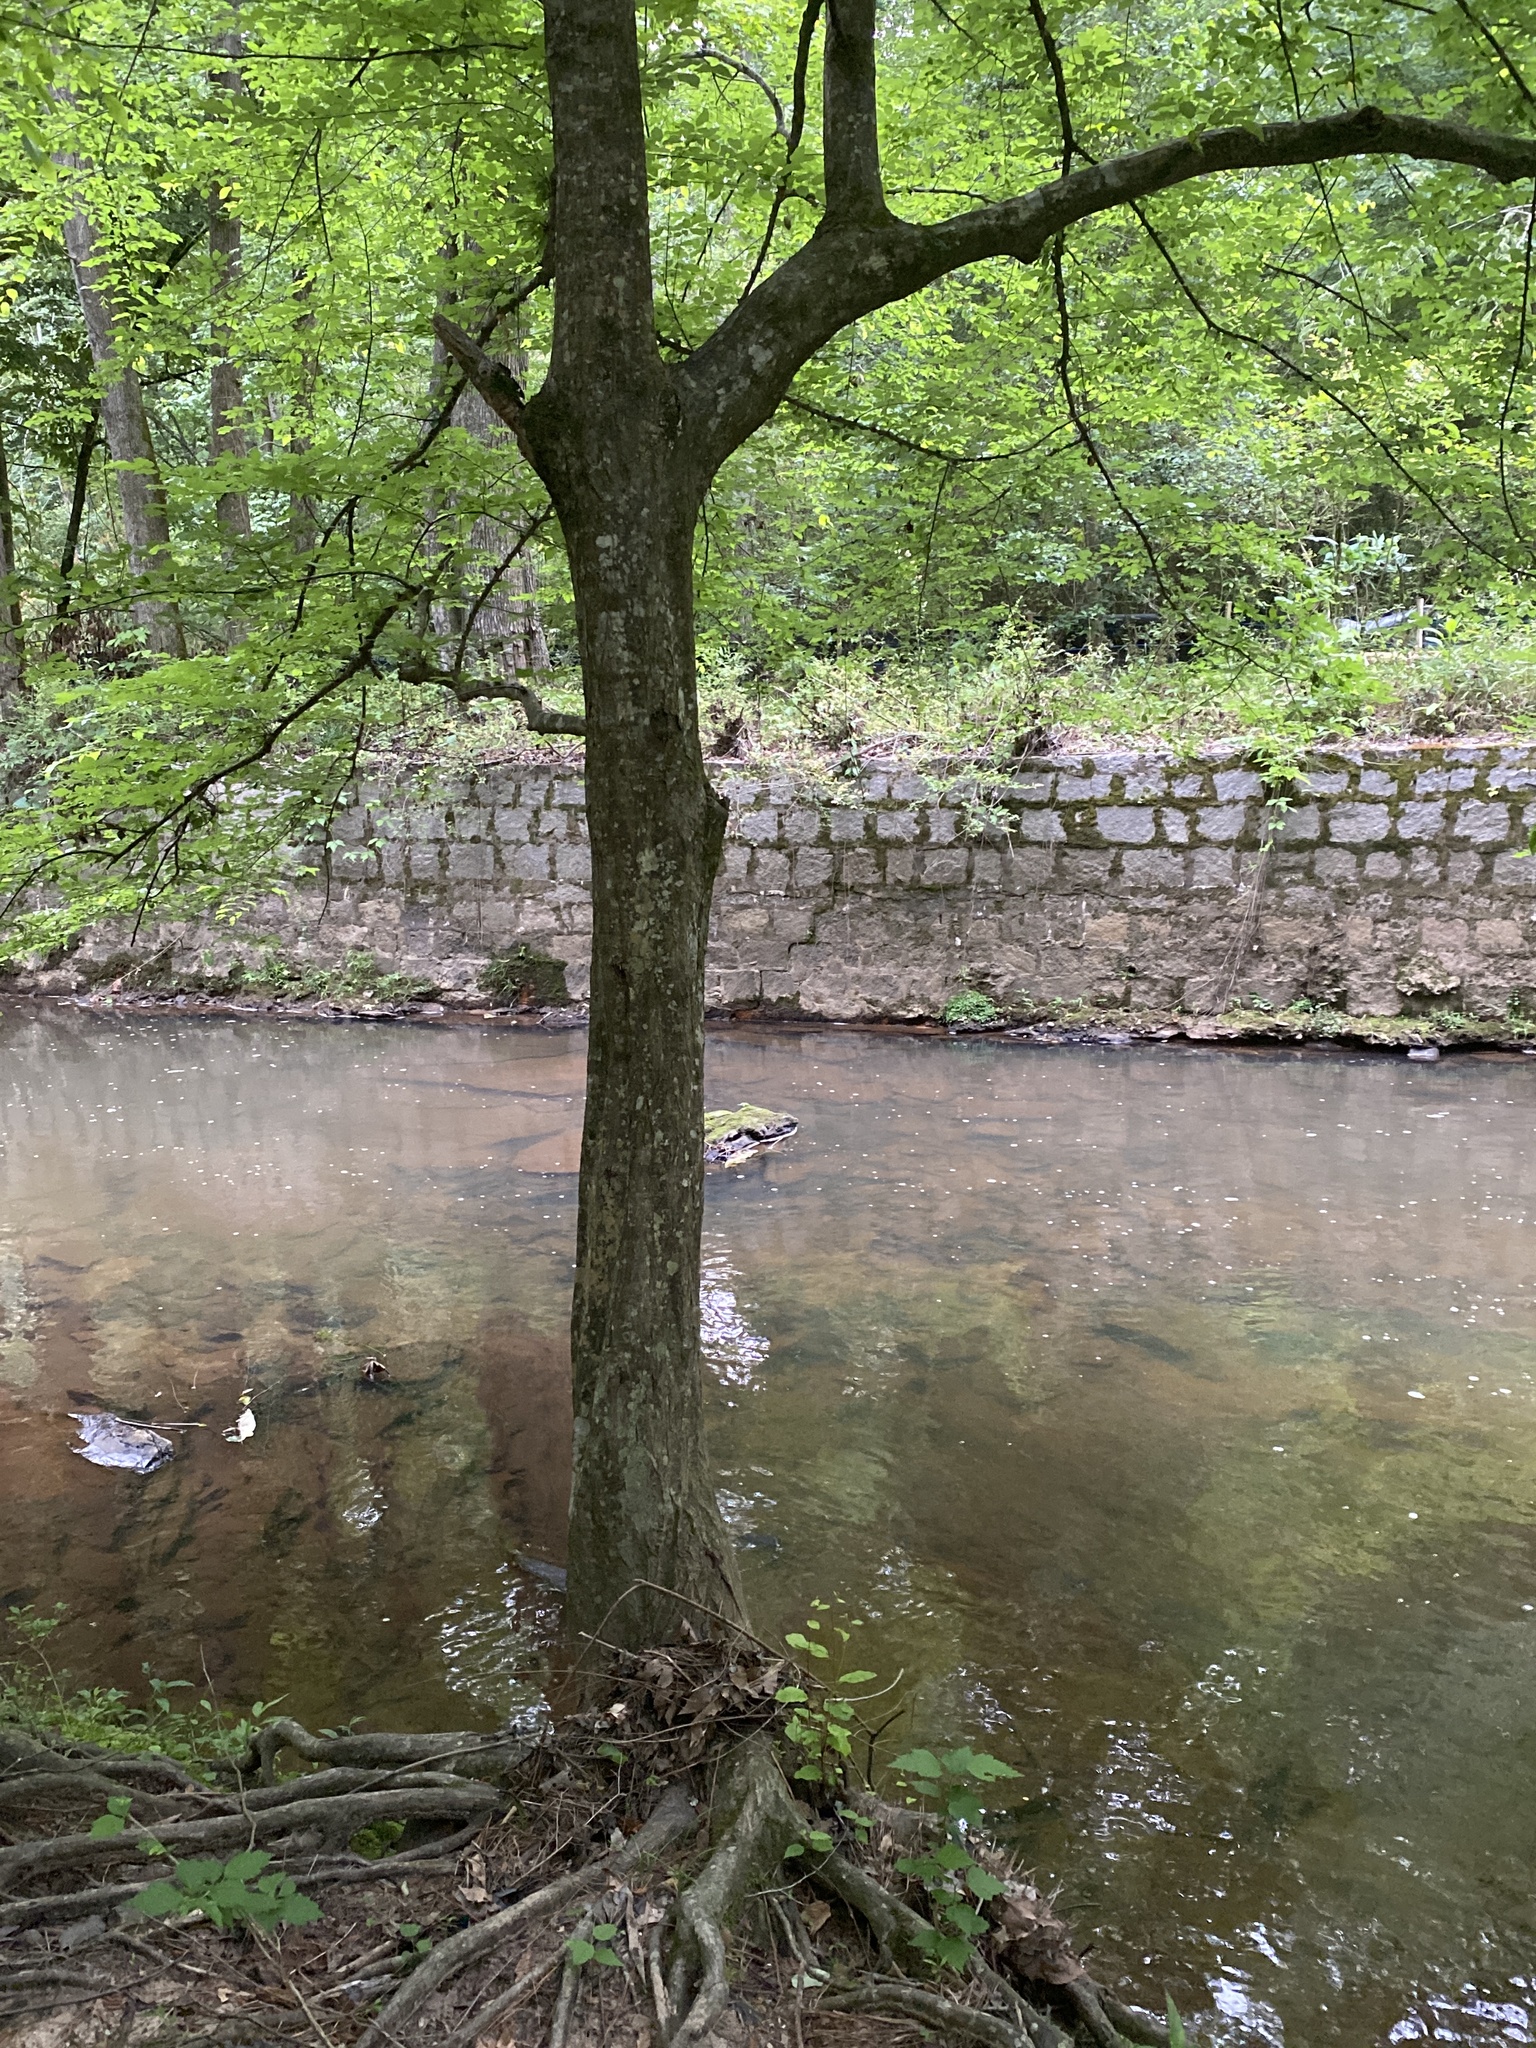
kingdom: Plantae
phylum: Tracheophyta
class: Magnoliopsida
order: Fagales
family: Betulaceae
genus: Carpinus
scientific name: Carpinus caroliniana
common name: American hornbeam
